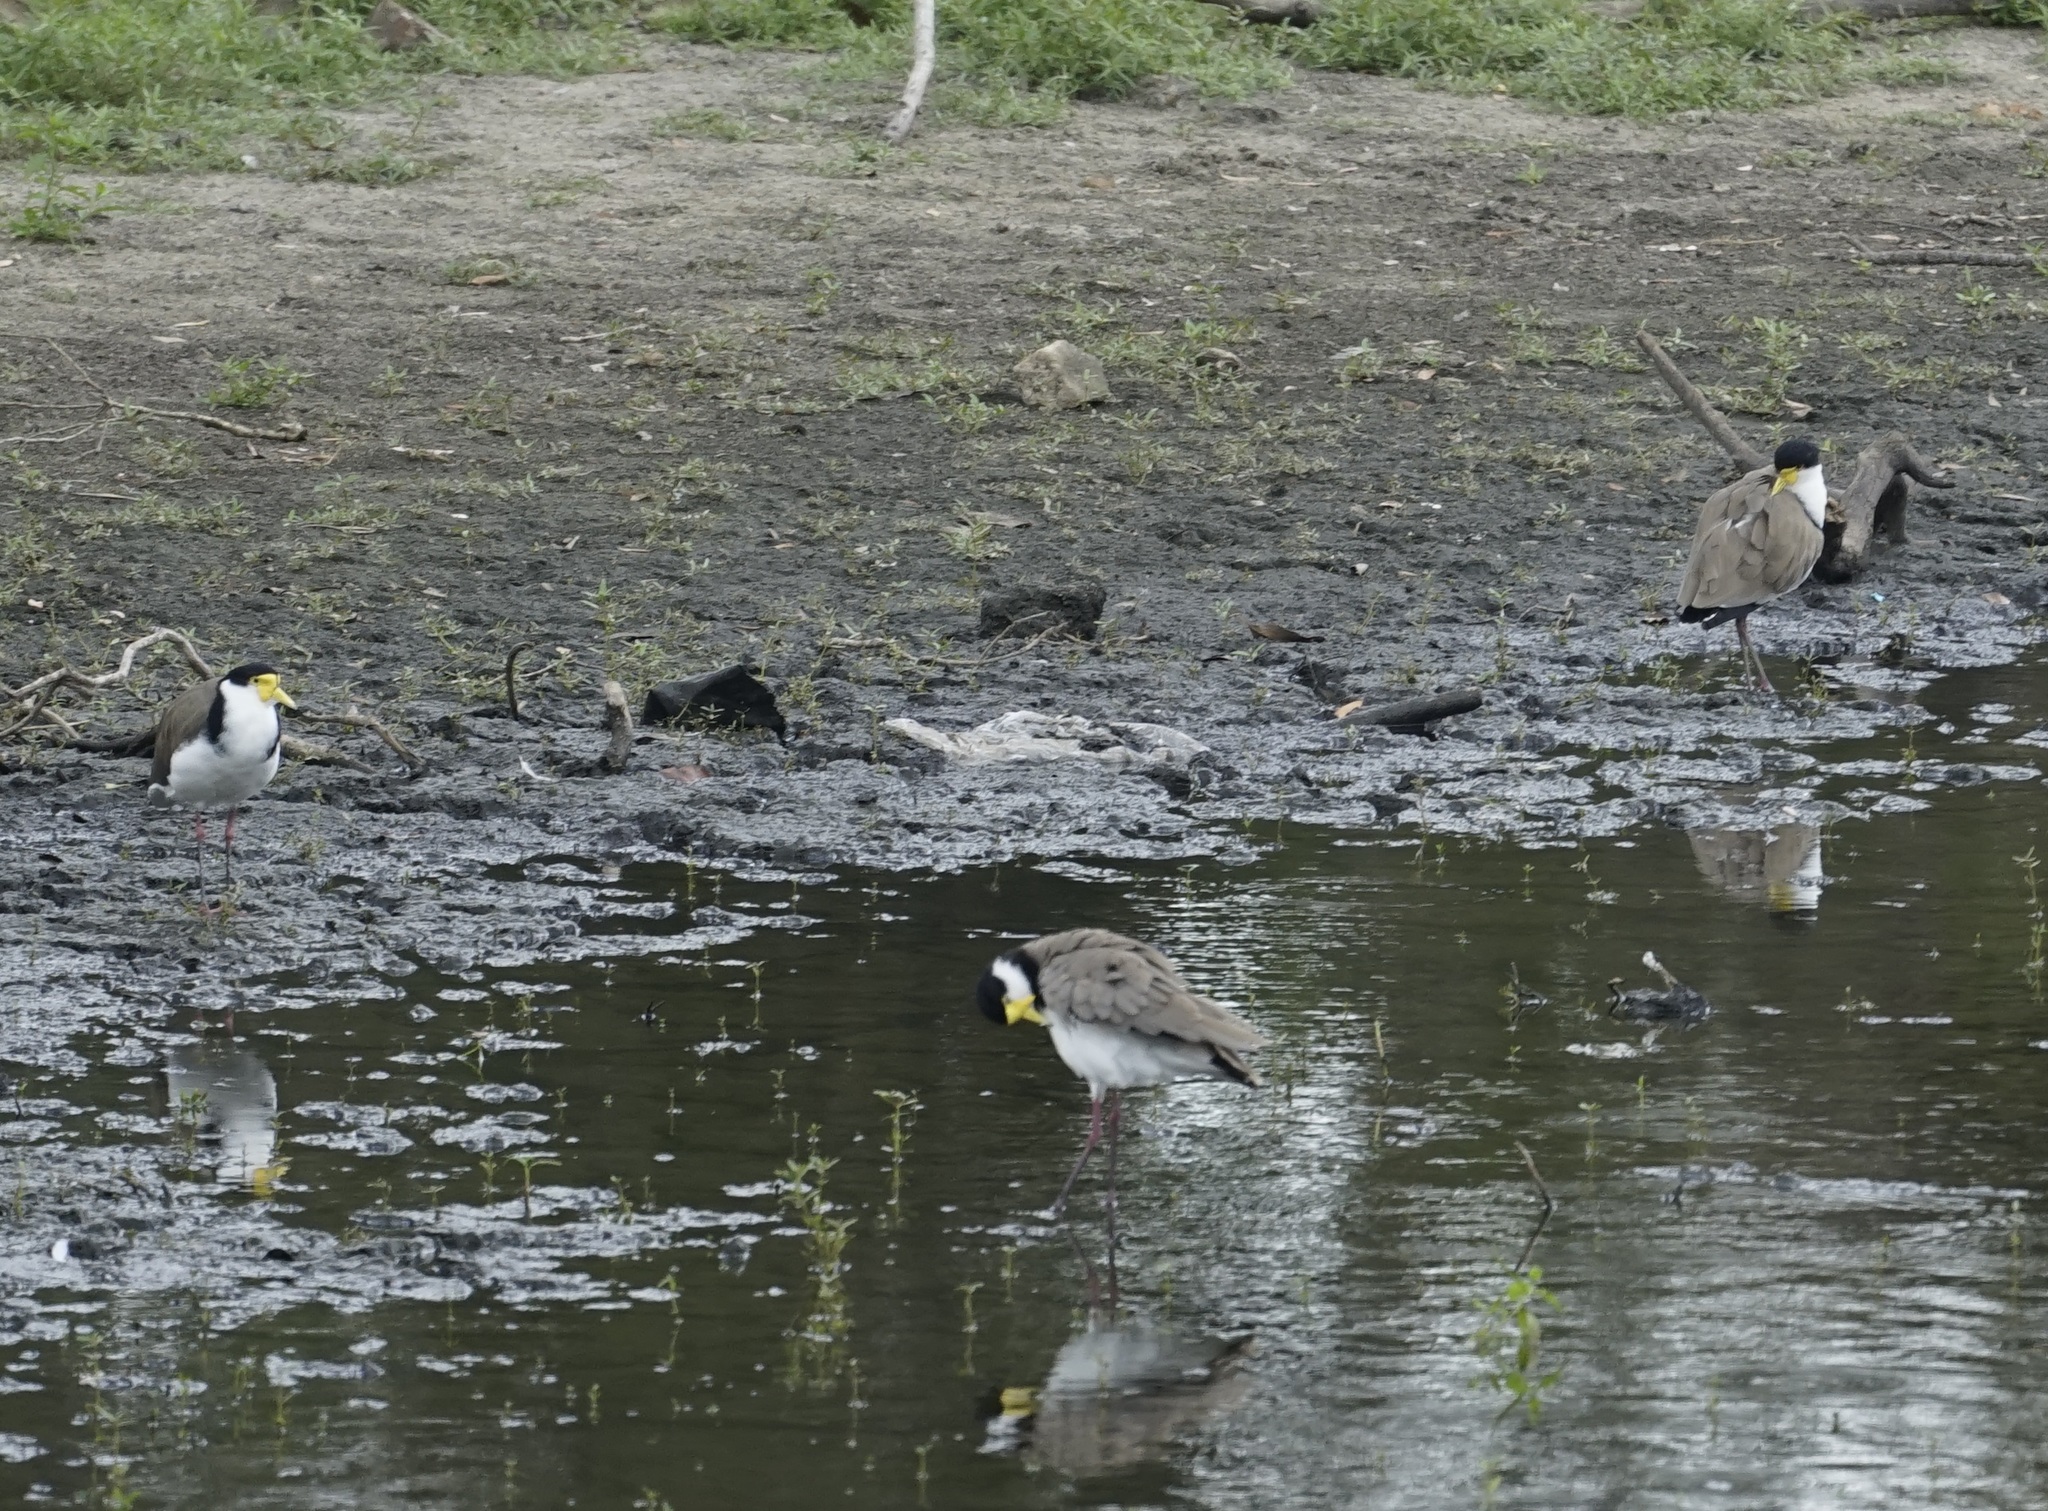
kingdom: Animalia
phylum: Chordata
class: Aves
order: Charadriiformes
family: Charadriidae
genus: Vanellus
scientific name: Vanellus miles
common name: Masked lapwing
